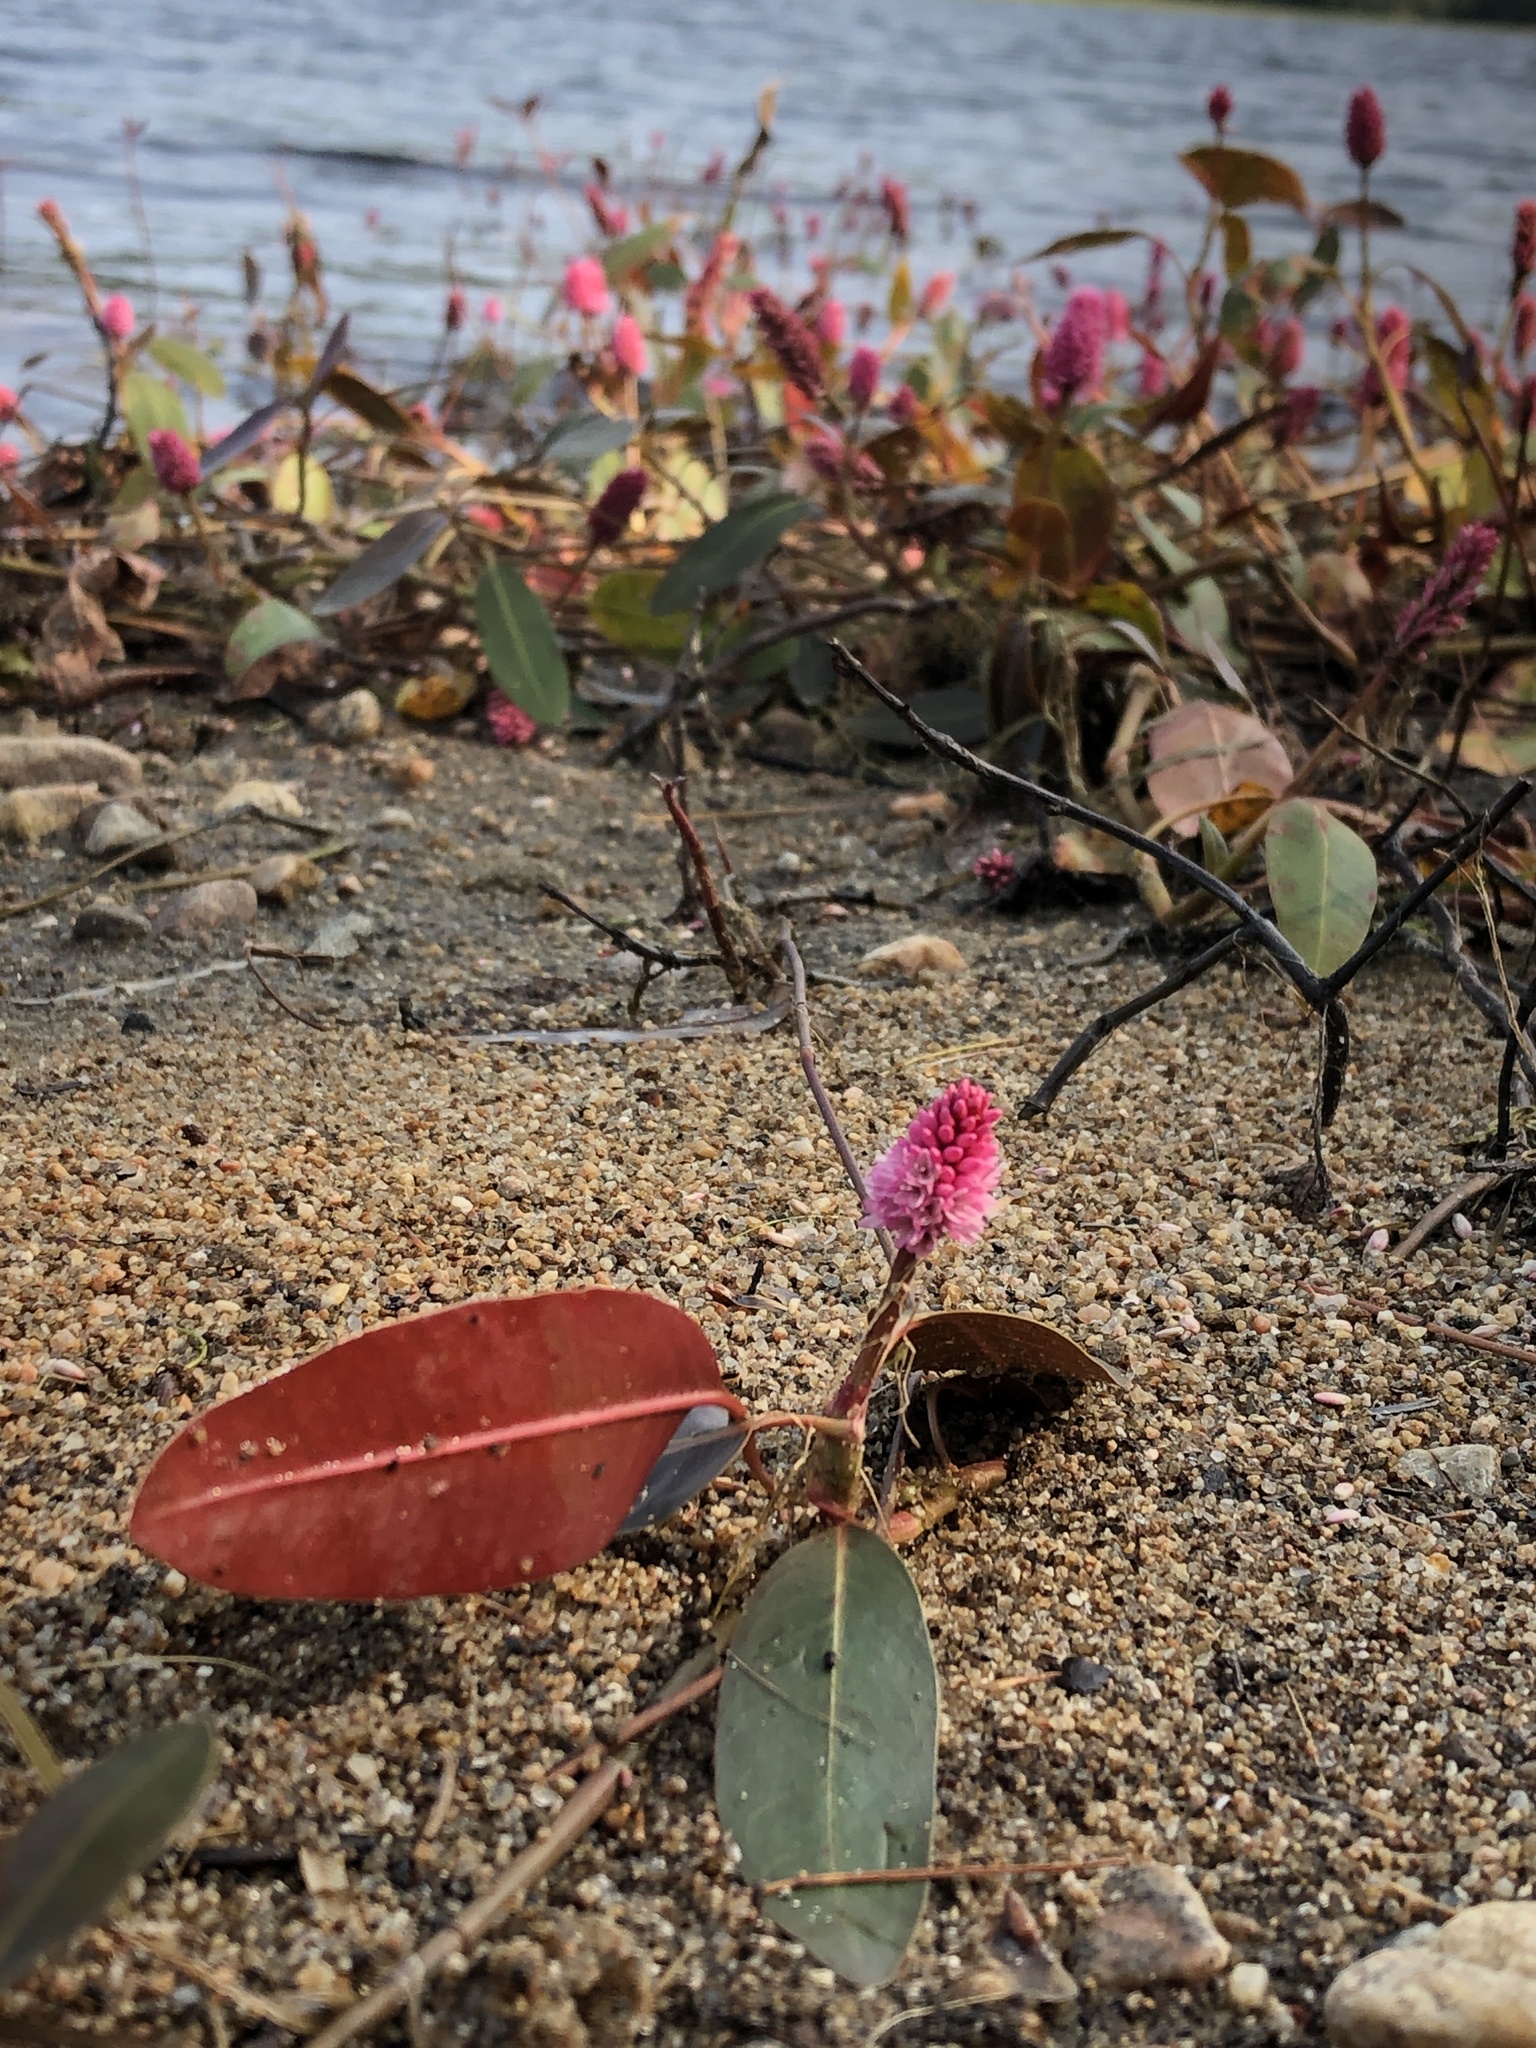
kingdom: Plantae
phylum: Tracheophyta
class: Magnoliopsida
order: Caryophyllales
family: Polygonaceae
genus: Persicaria
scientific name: Persicaria amphibia
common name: Amphibious bistort
